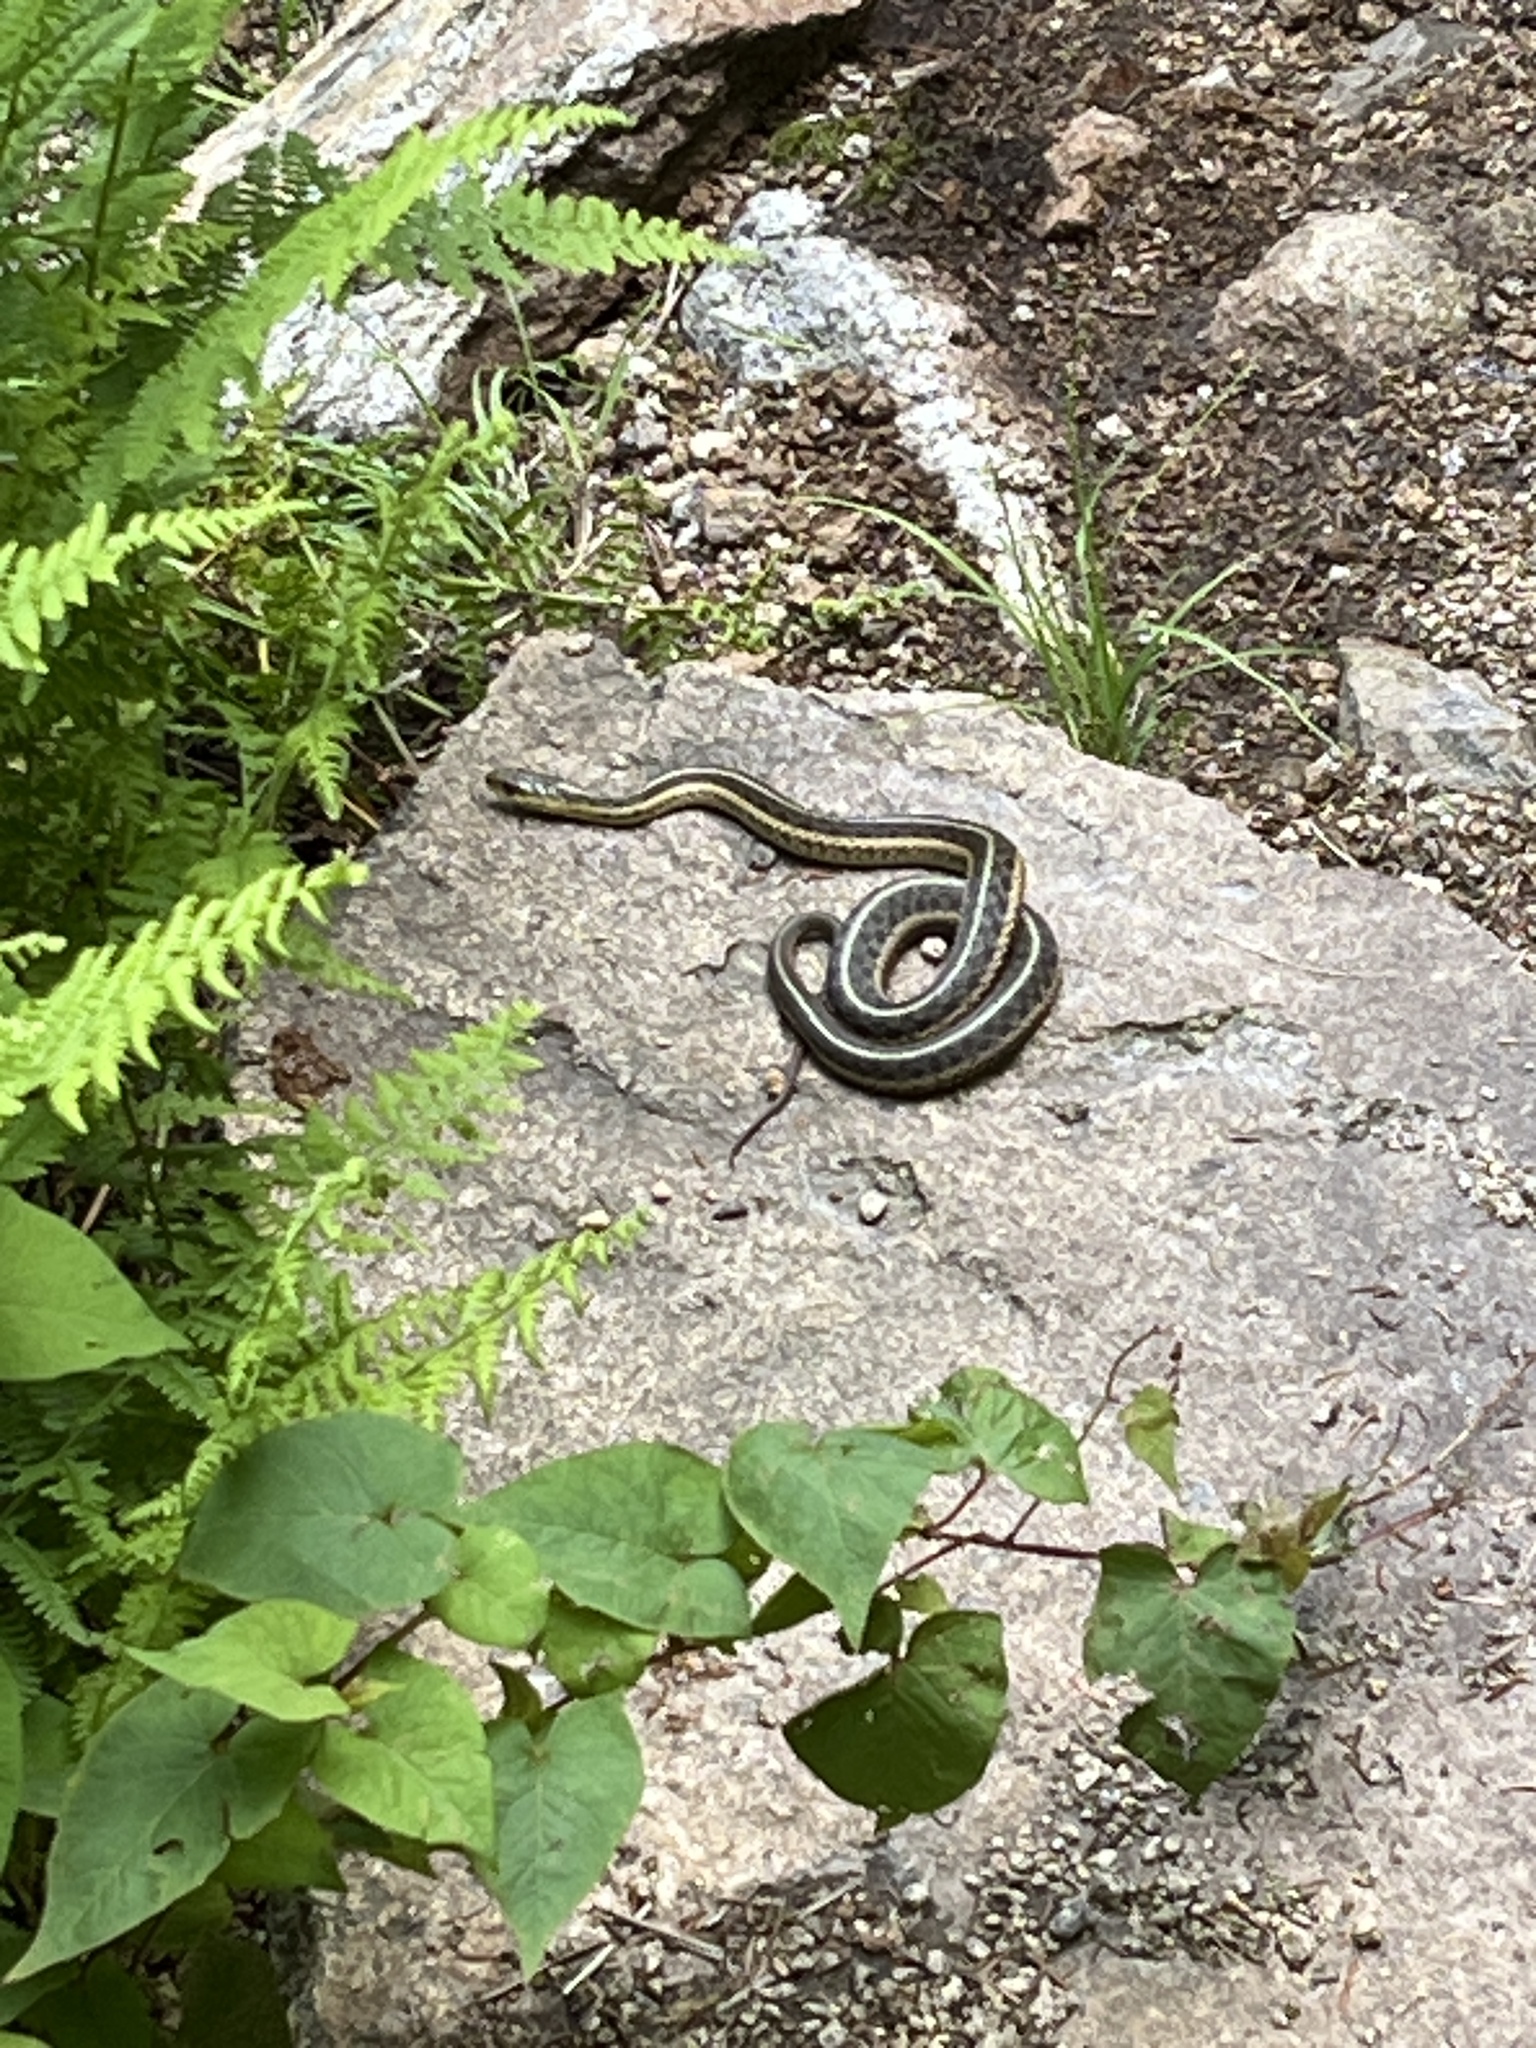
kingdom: Animalia
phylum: Chordata
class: Squamata
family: Colubridae
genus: Thamnophis
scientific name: Thamnophis sirtalis
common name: Common garter snake
